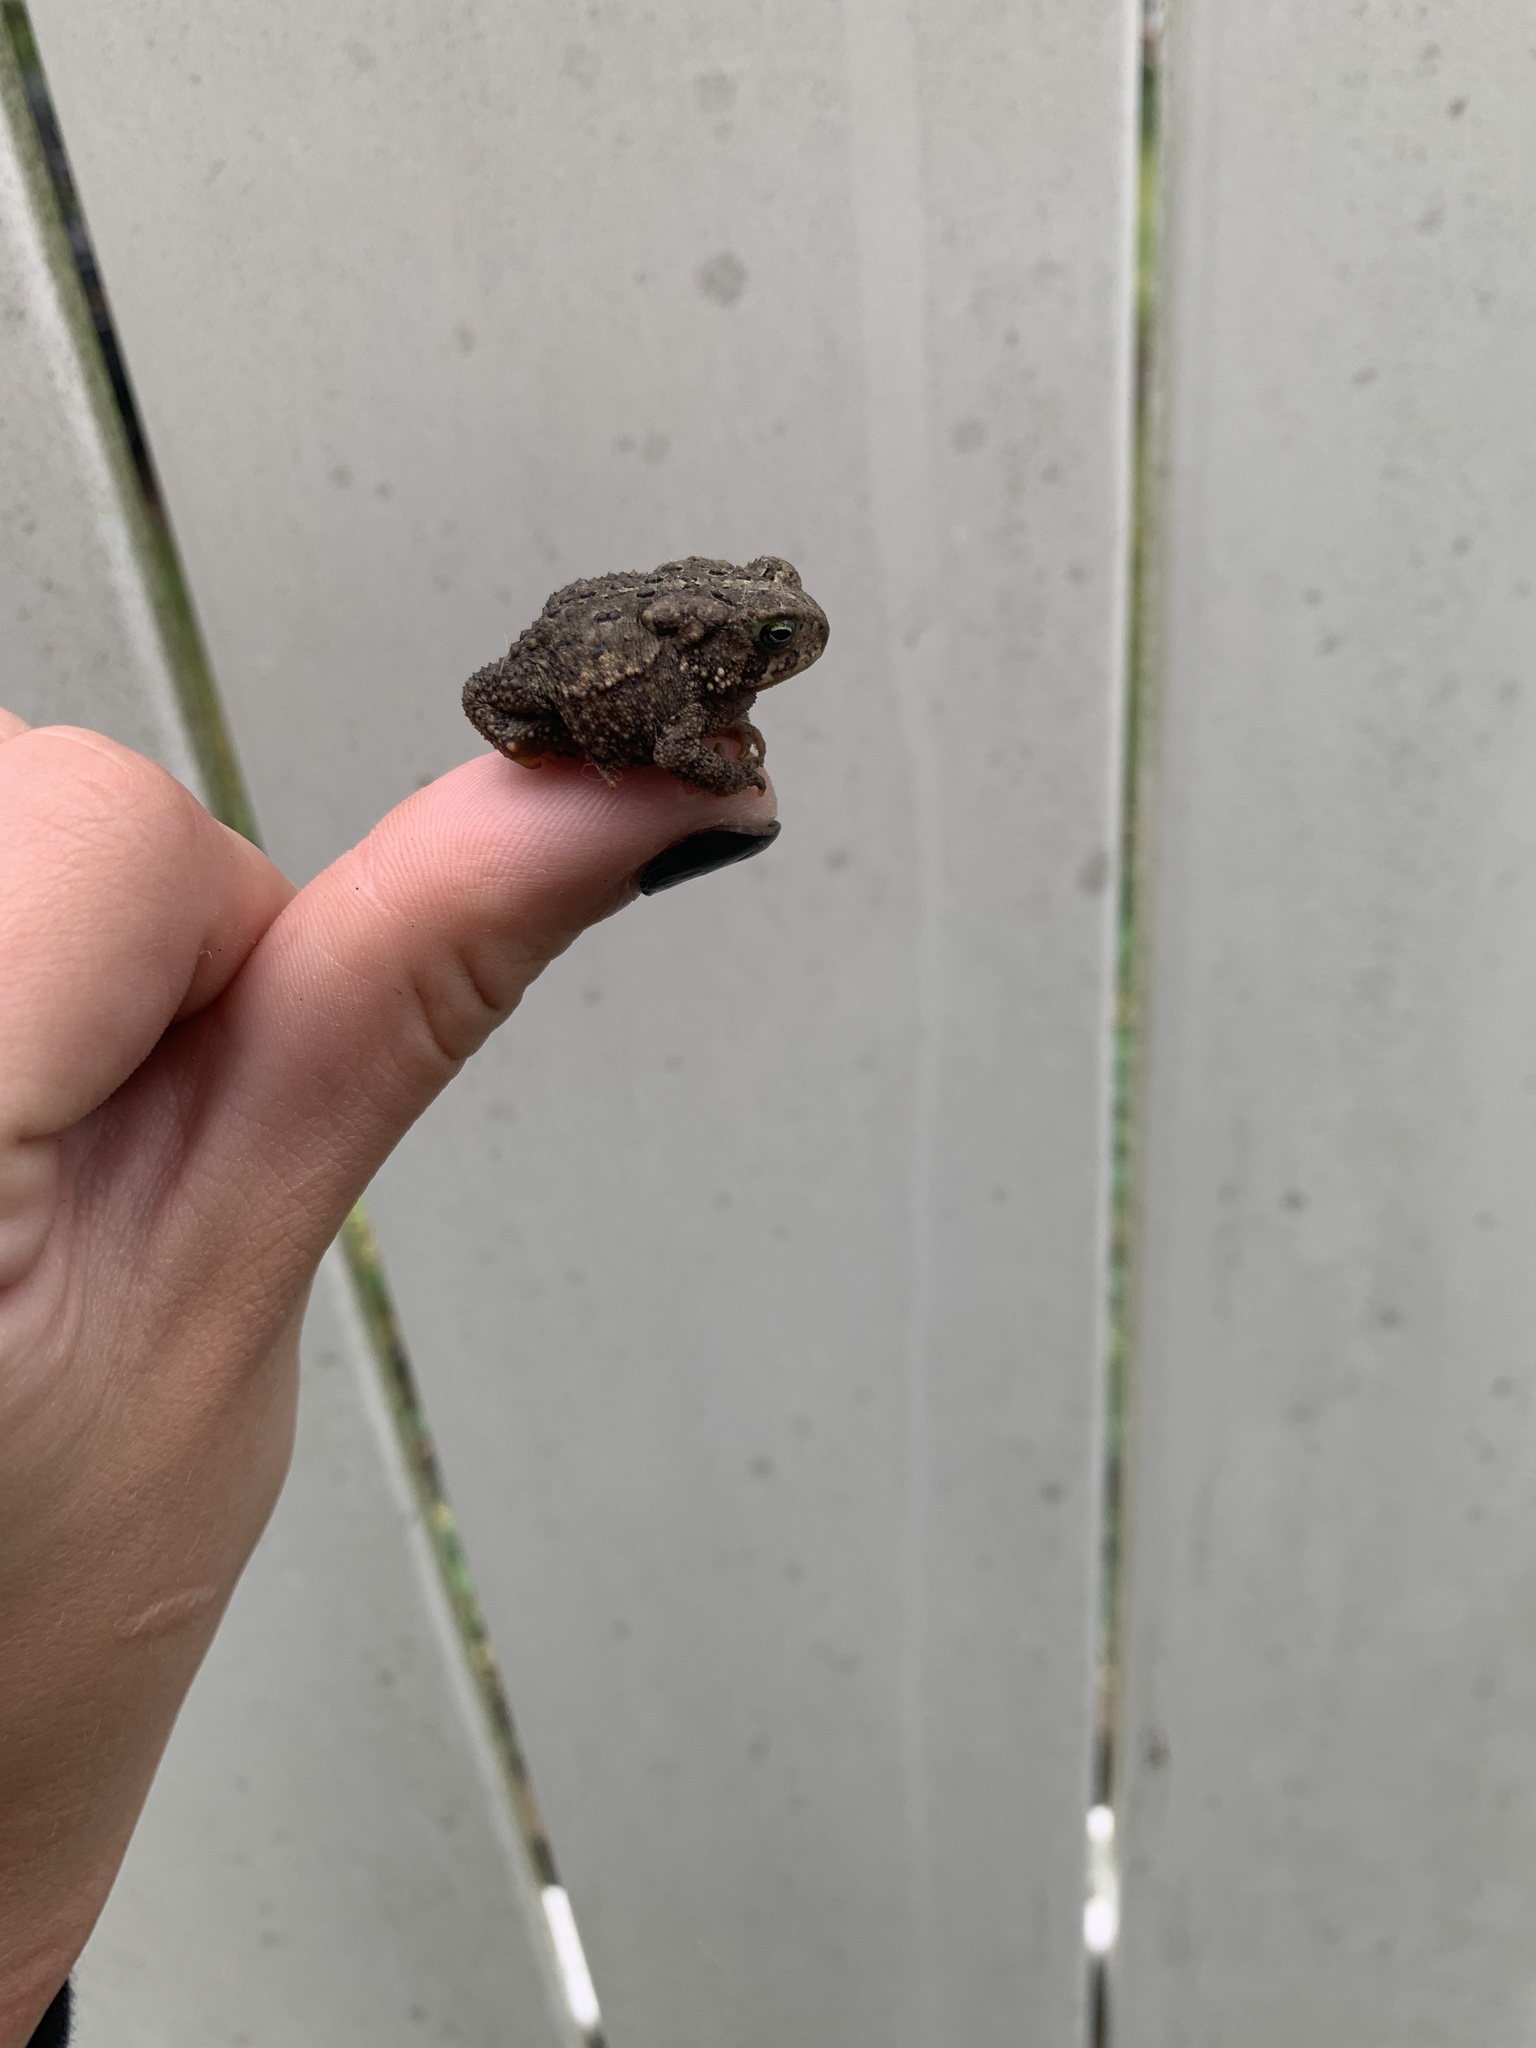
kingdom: Animalia
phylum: Chordata
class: Amphibia
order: Anura
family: Bufonidae
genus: Anaxyrus
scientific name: Anaxyrus americanus
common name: American toad
